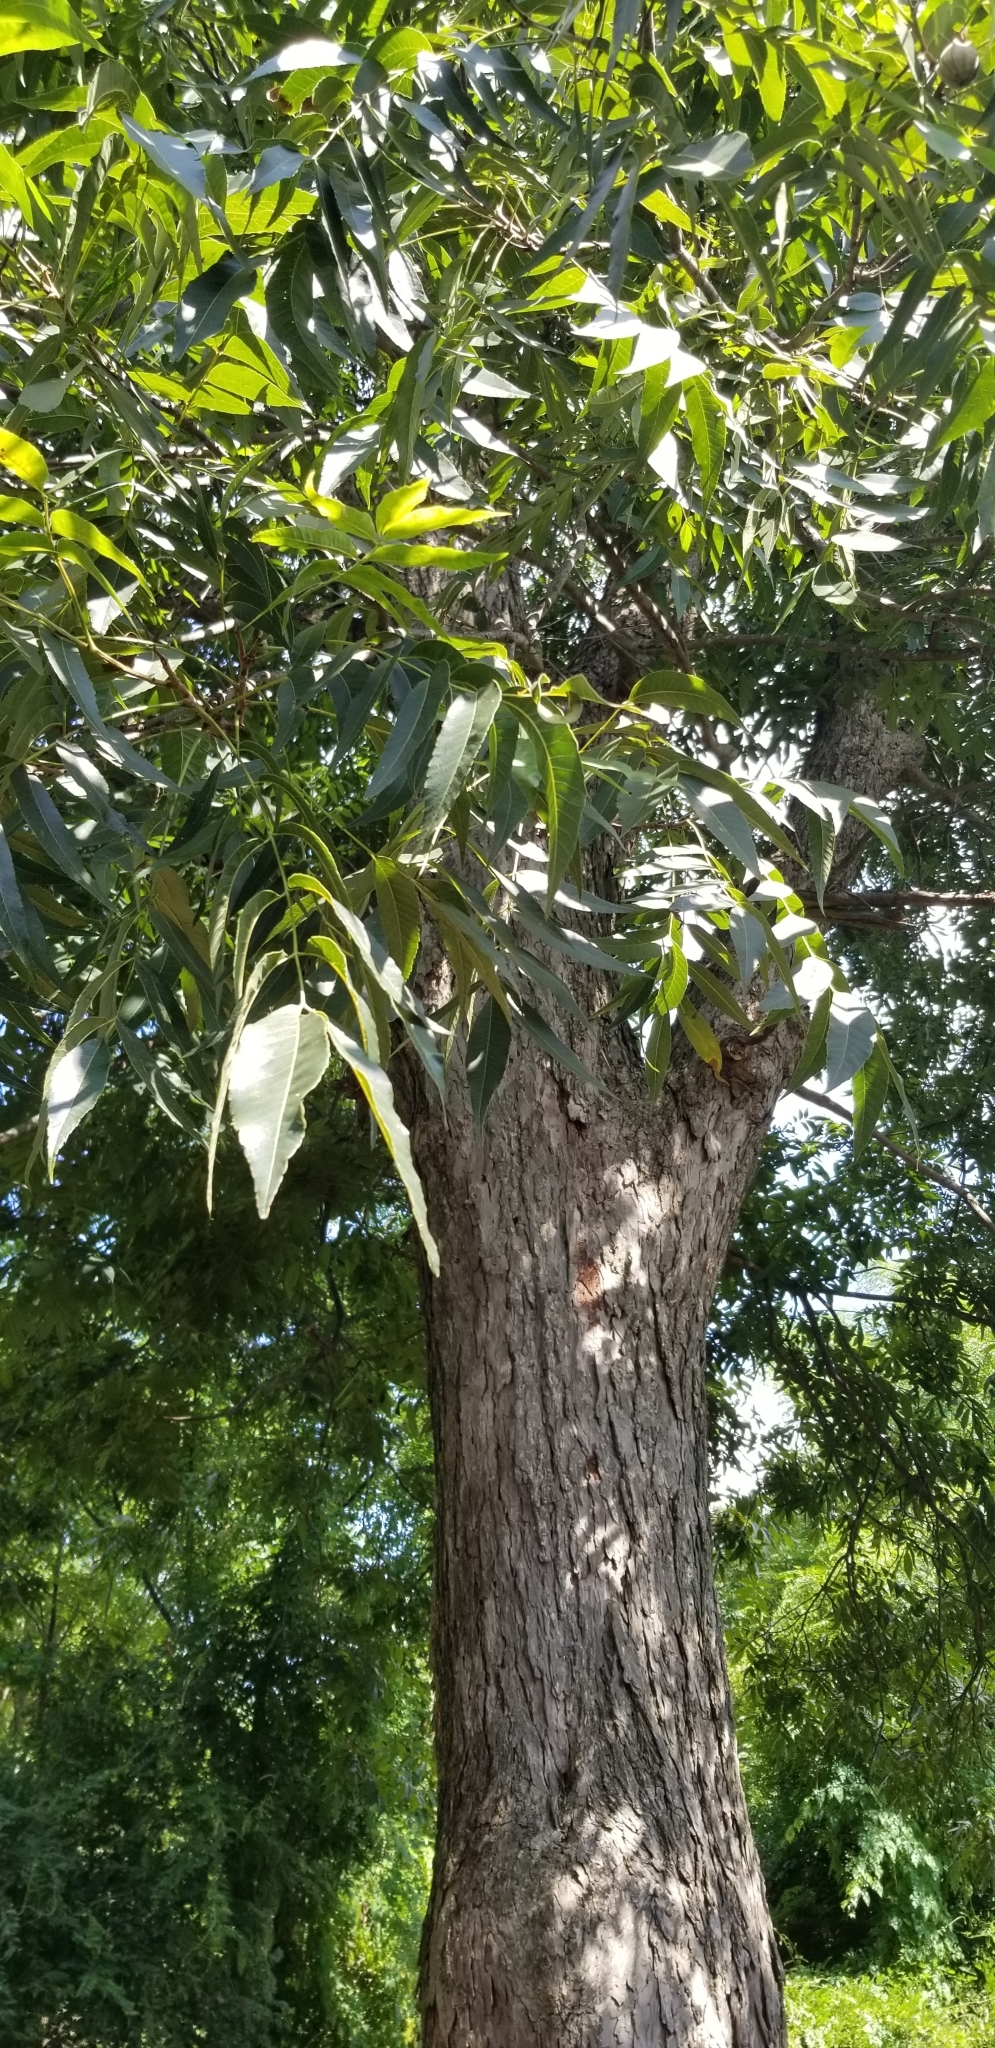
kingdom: Plantae
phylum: Tracheophyta
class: Magnoliopsida
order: Fagales
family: Juglandaceae
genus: Carya
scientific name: Carya illinoinensis
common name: Pecan
